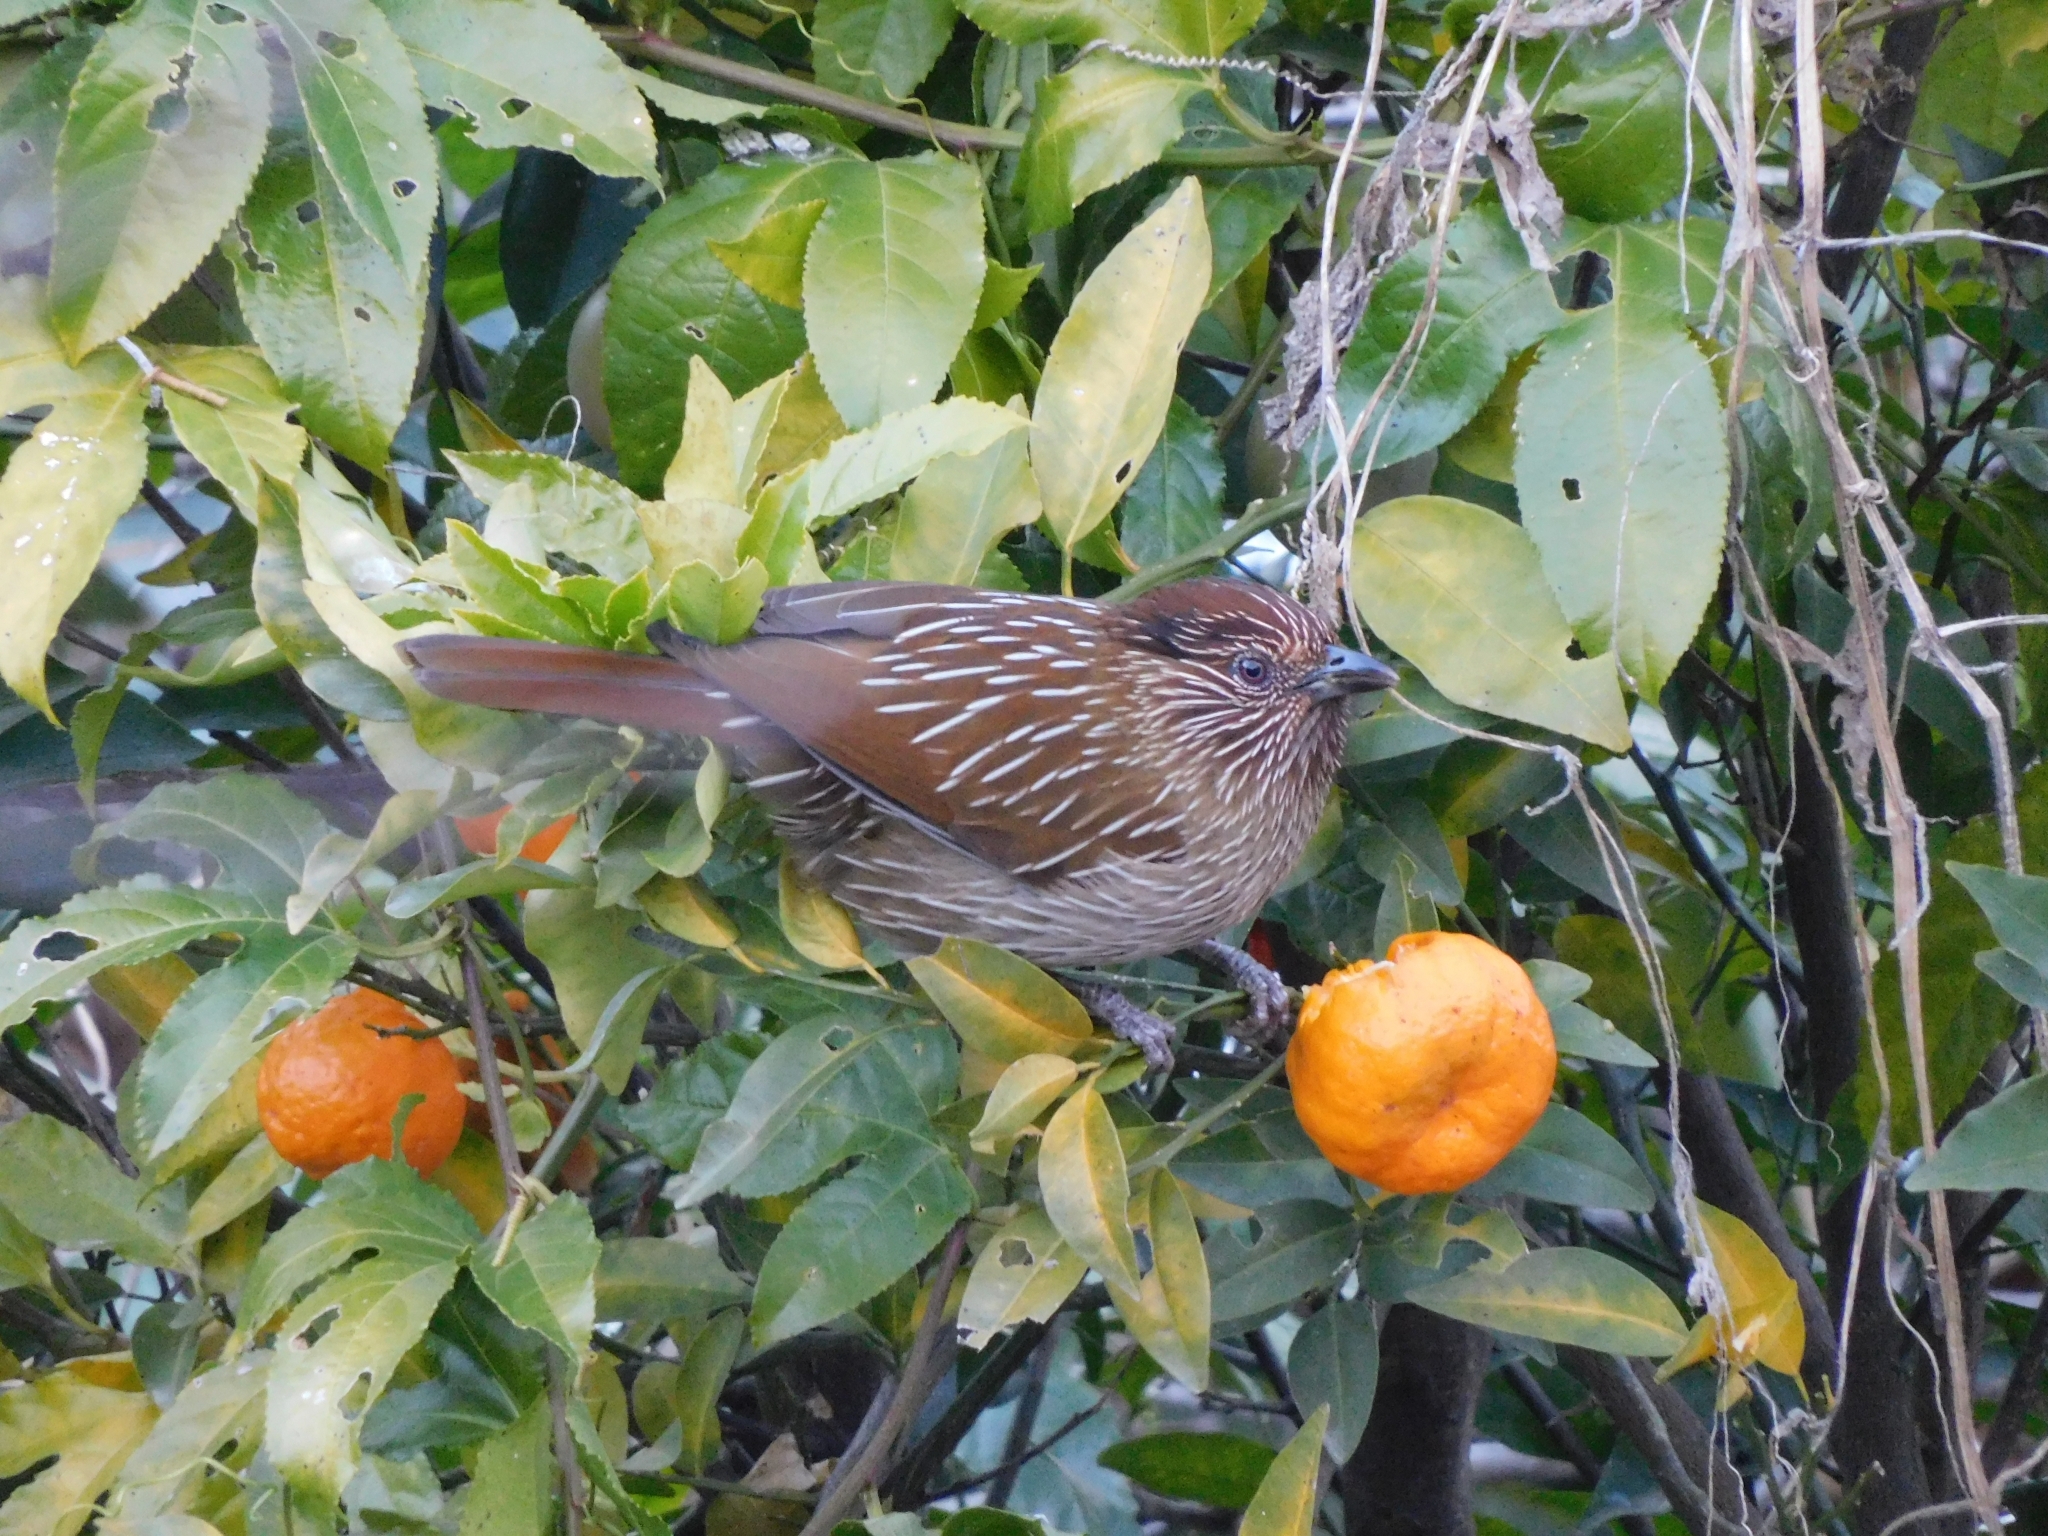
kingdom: Animalia
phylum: Chordata
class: Aves
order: Passeriformes
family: Leiothrichidae
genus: Garrulax
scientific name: Garrulax striatus
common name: Striated laughingthrush
